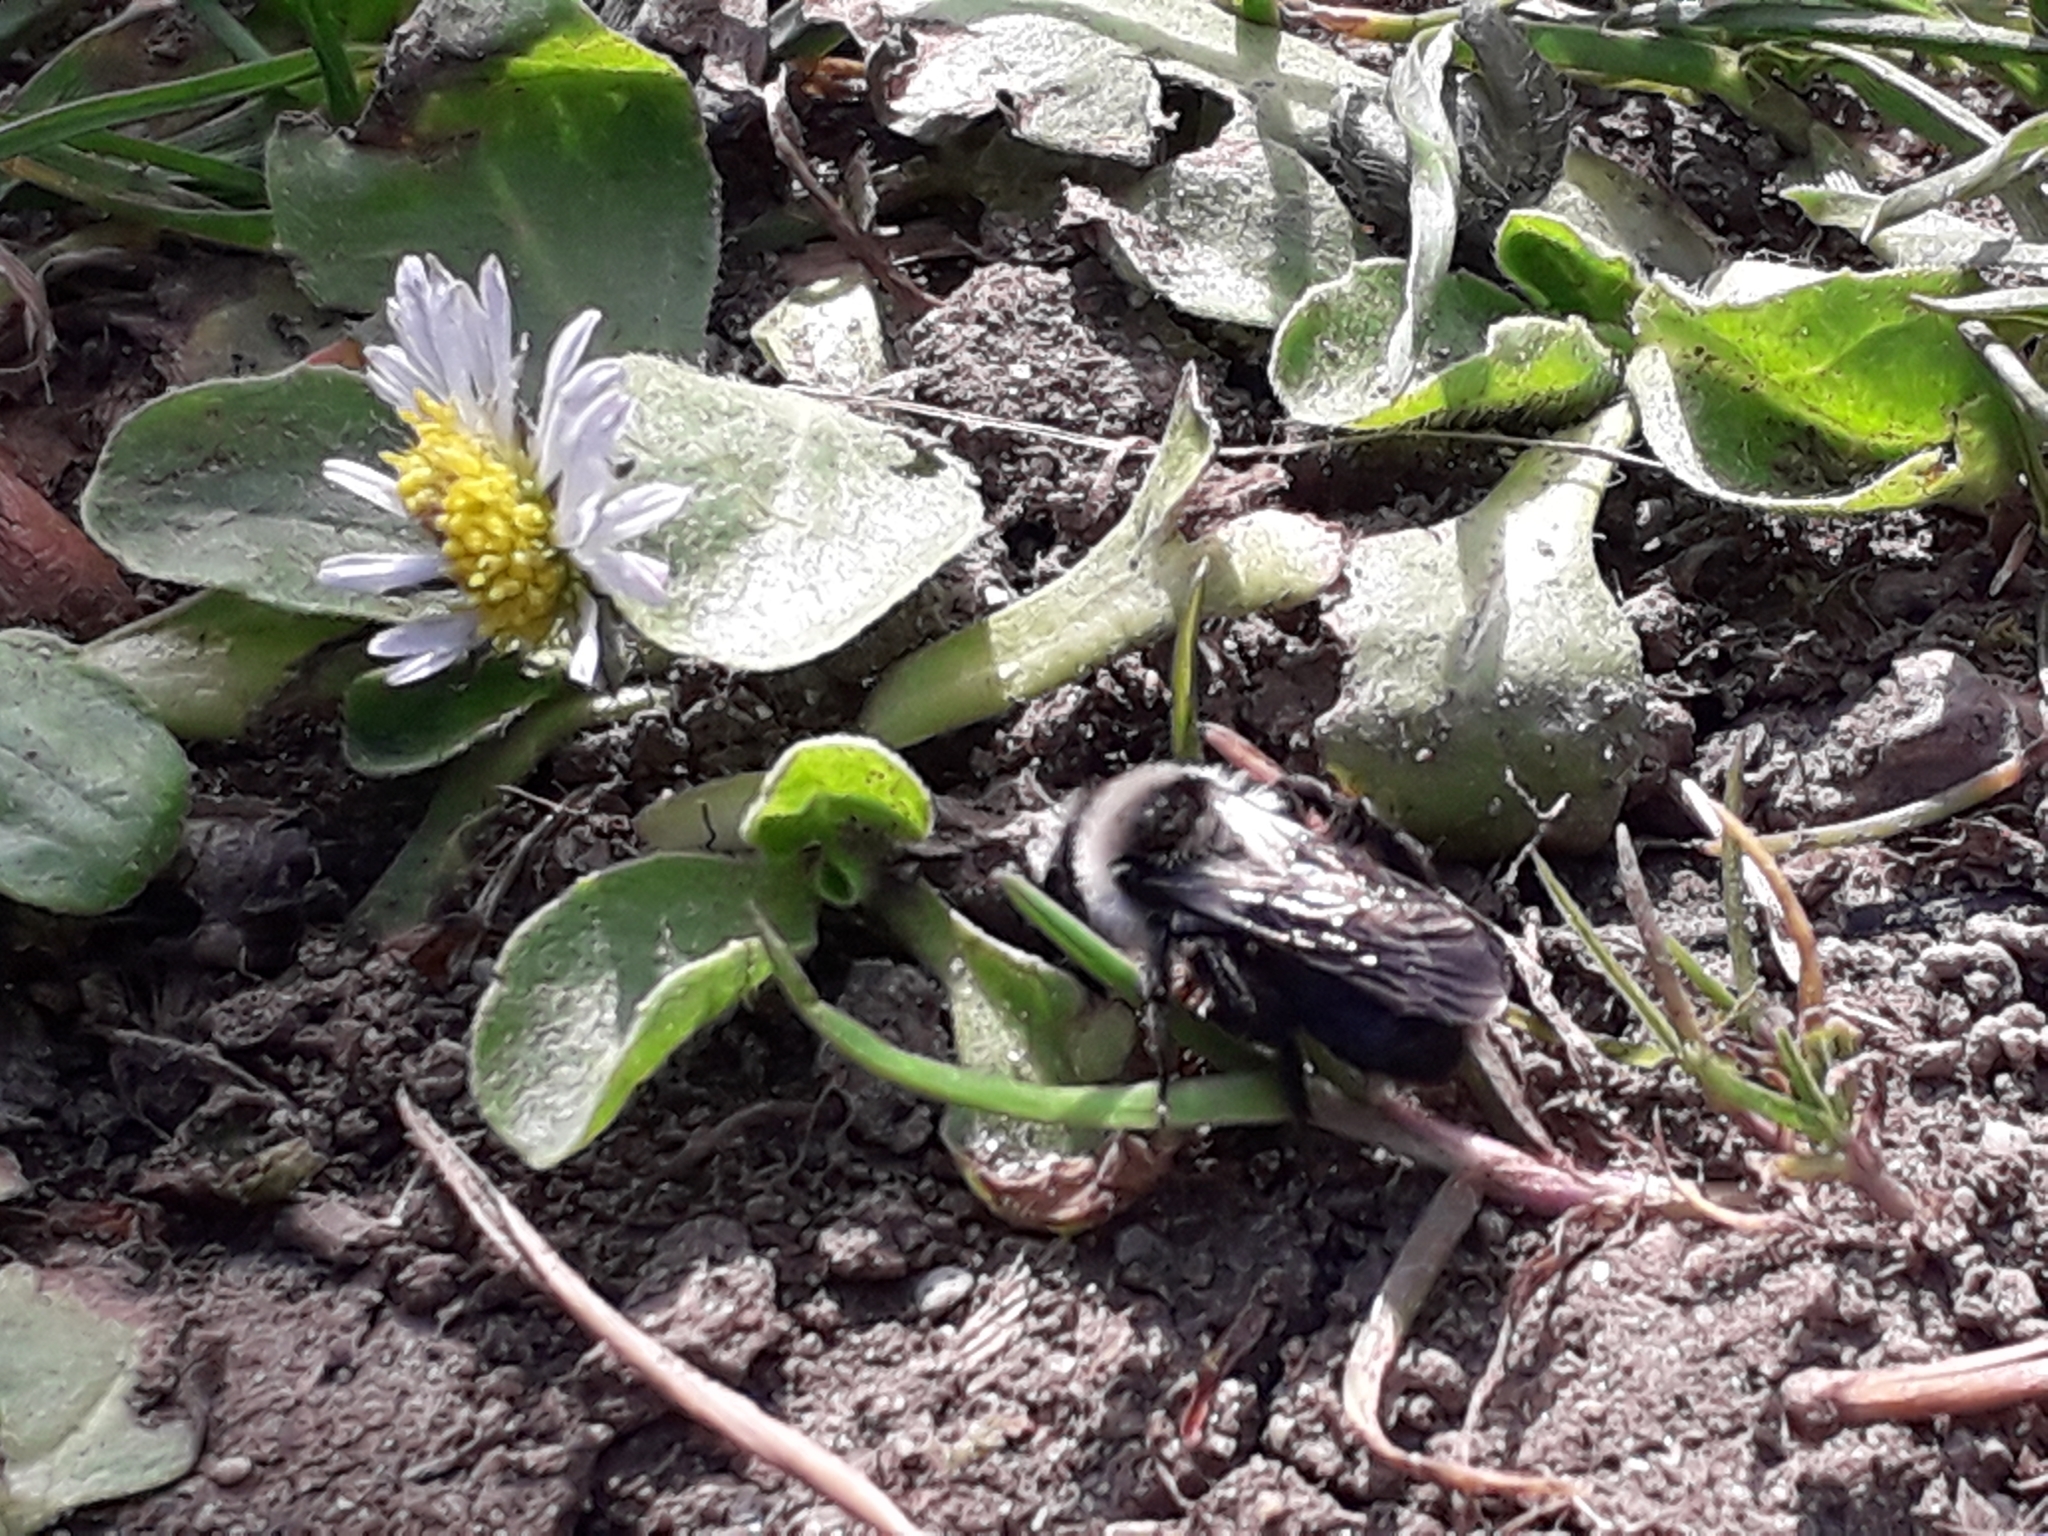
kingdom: Animalia
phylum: Arthropoda
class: Insecta
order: Hymenoptera
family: Andrenidae
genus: Andrena
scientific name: Andrena cineraria
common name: Ashy mining bee
